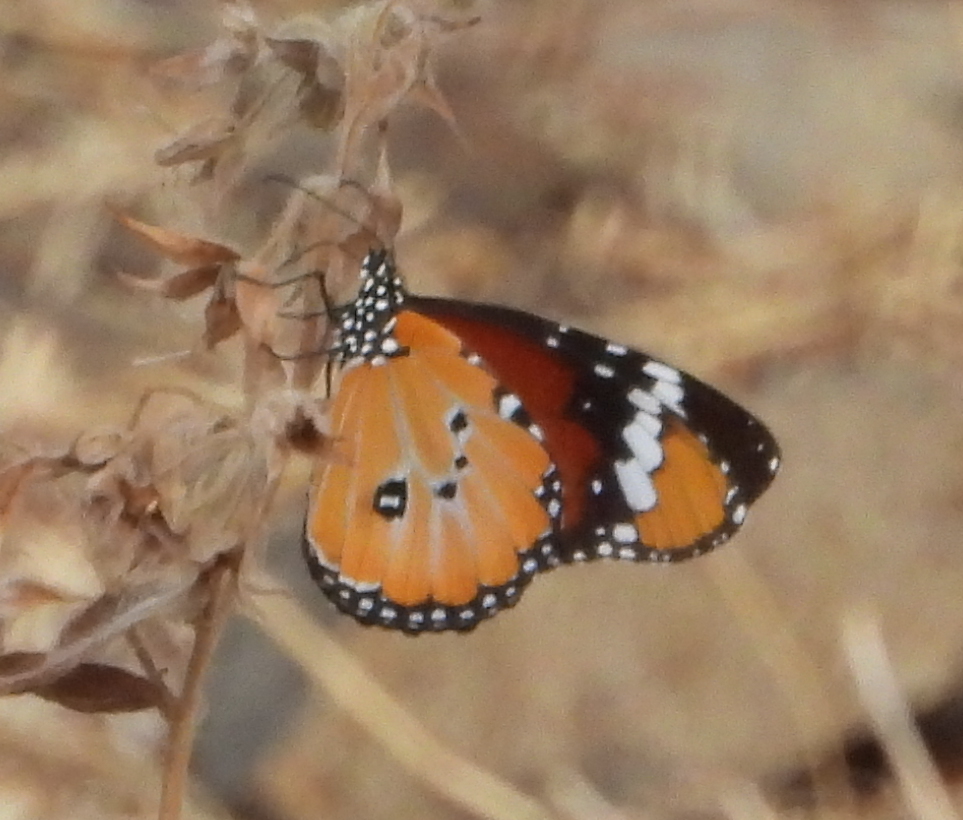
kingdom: Animalia
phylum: Arthropoda
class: Insecta
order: Lepidoptera
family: Nymphalidae
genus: Danaus
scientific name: Danaus chrysippus
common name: Plain tiger
